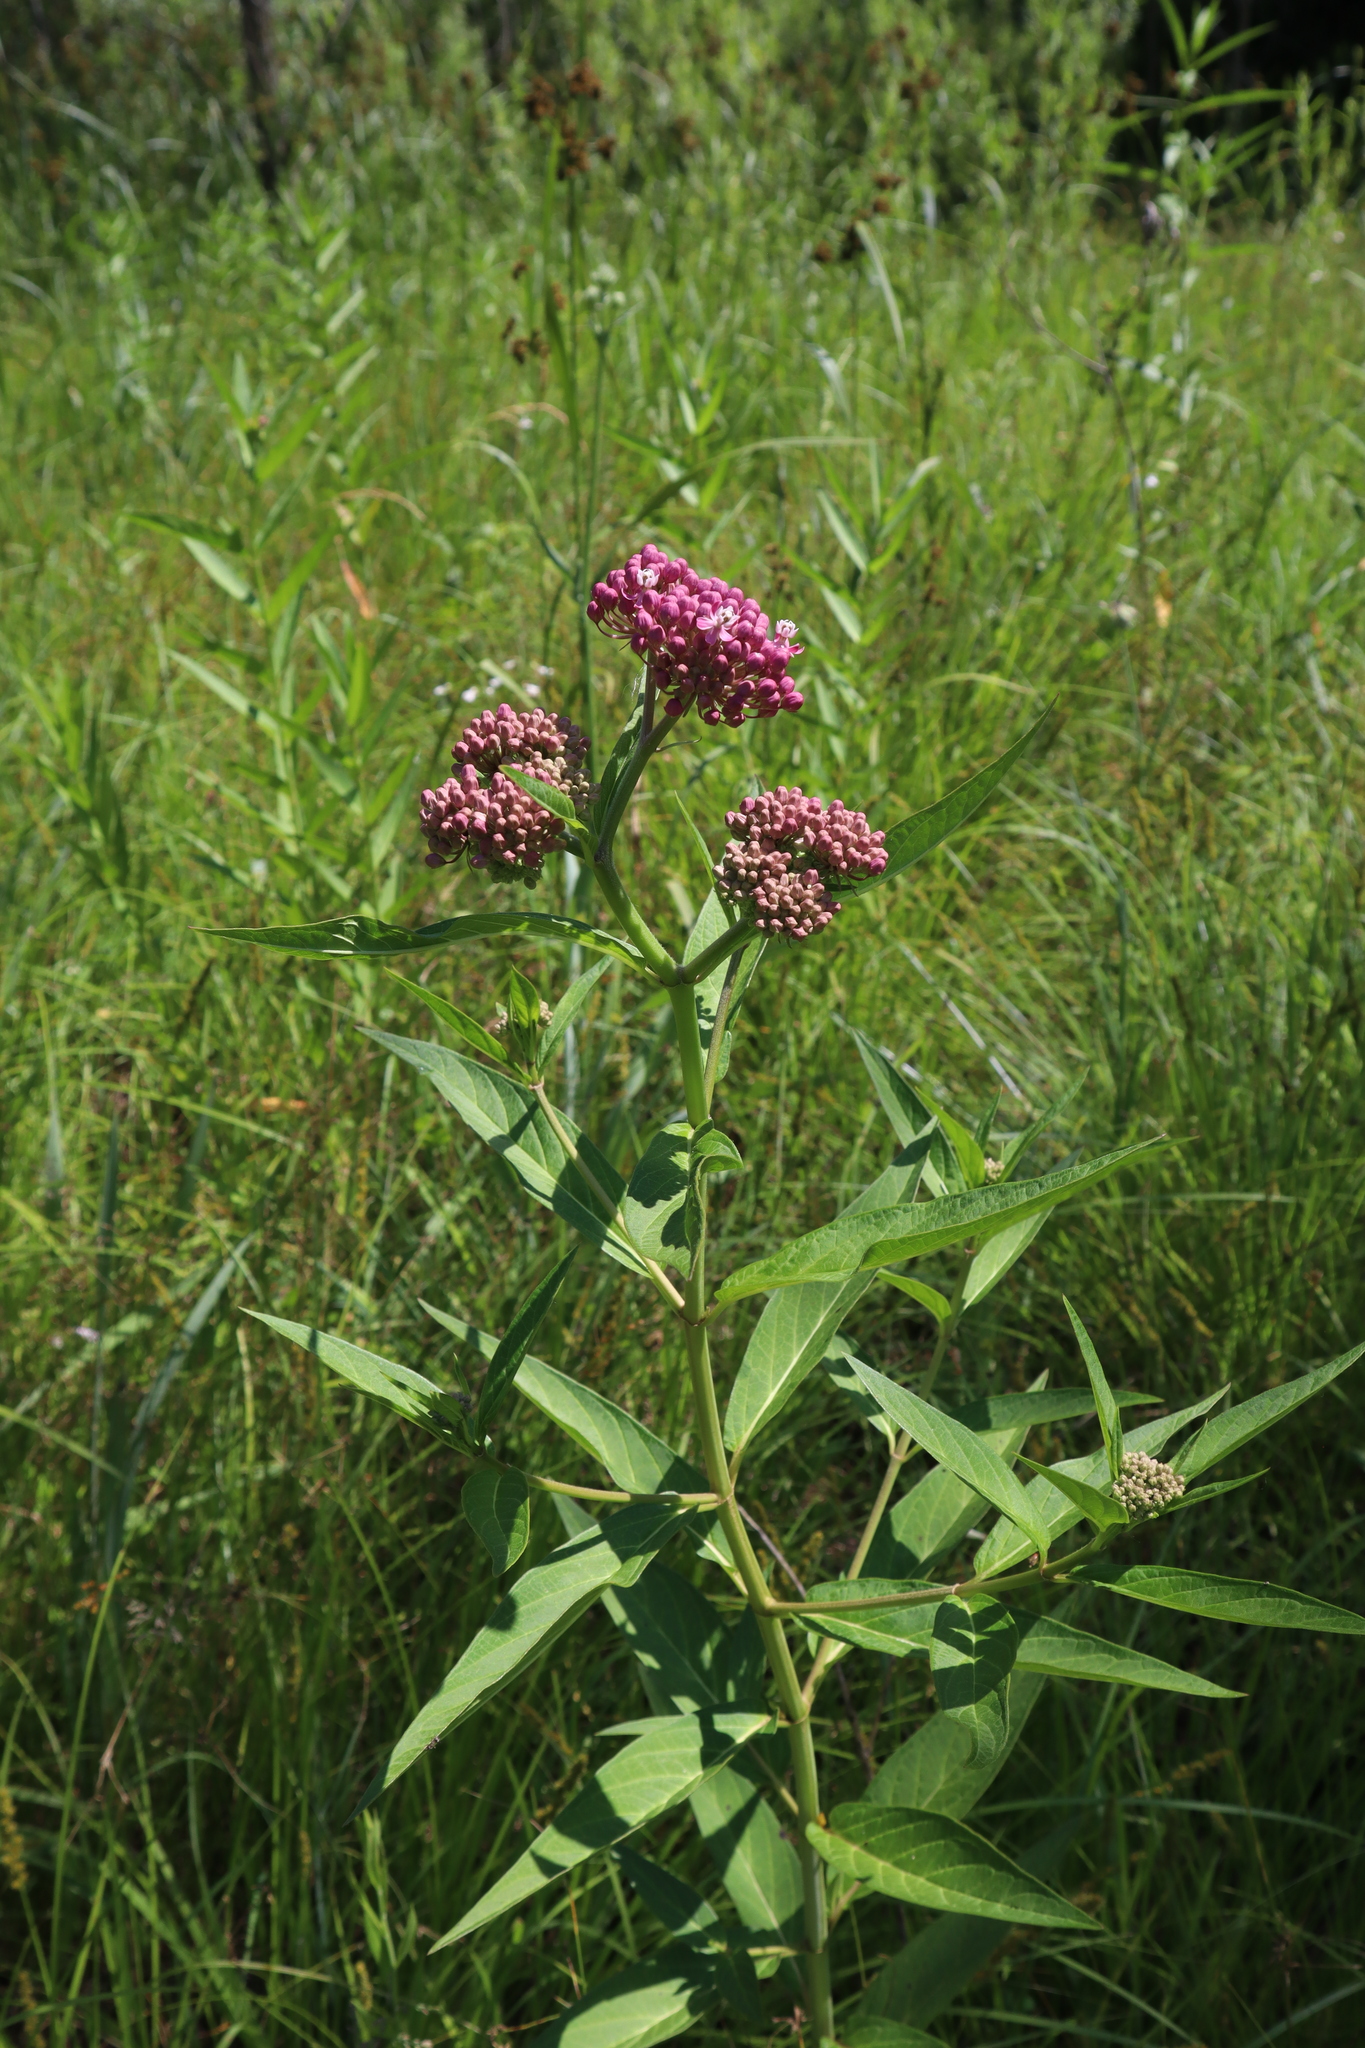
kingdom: Plantae
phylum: Tracheophyta
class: Magnoliopsida
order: Gentianales
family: Apocynaceae
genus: Asclepias
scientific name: Asclepias incarnata
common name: Swamp milkweed
